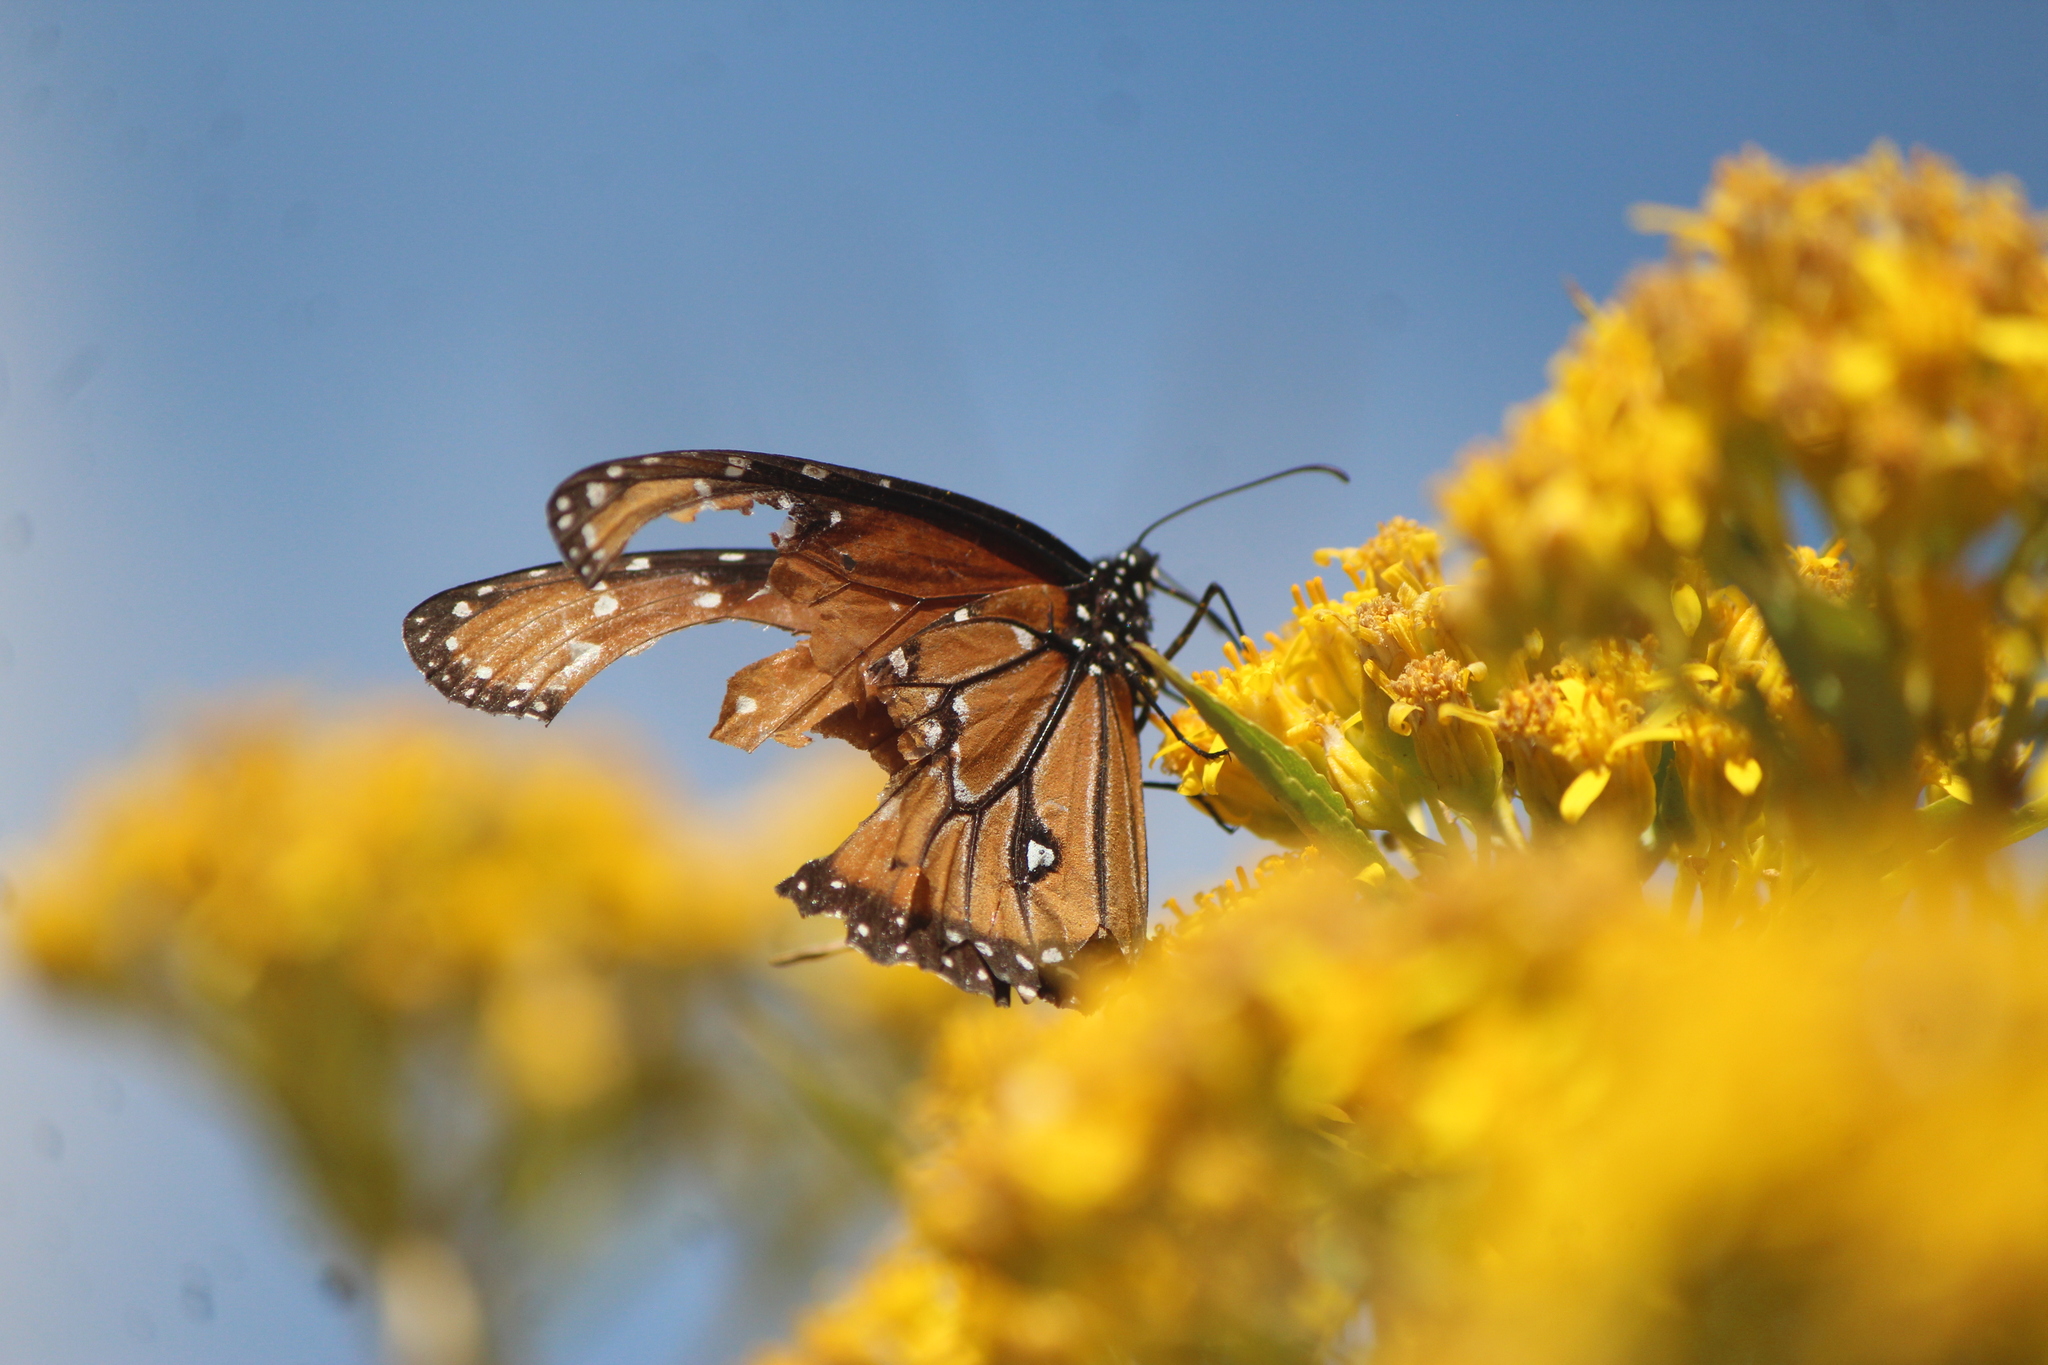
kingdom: Animalia
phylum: Arthropoda
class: Insecta
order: Lepidoptera
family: Nymphalidae
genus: Danaus
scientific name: Danaus gilippus
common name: Queen
